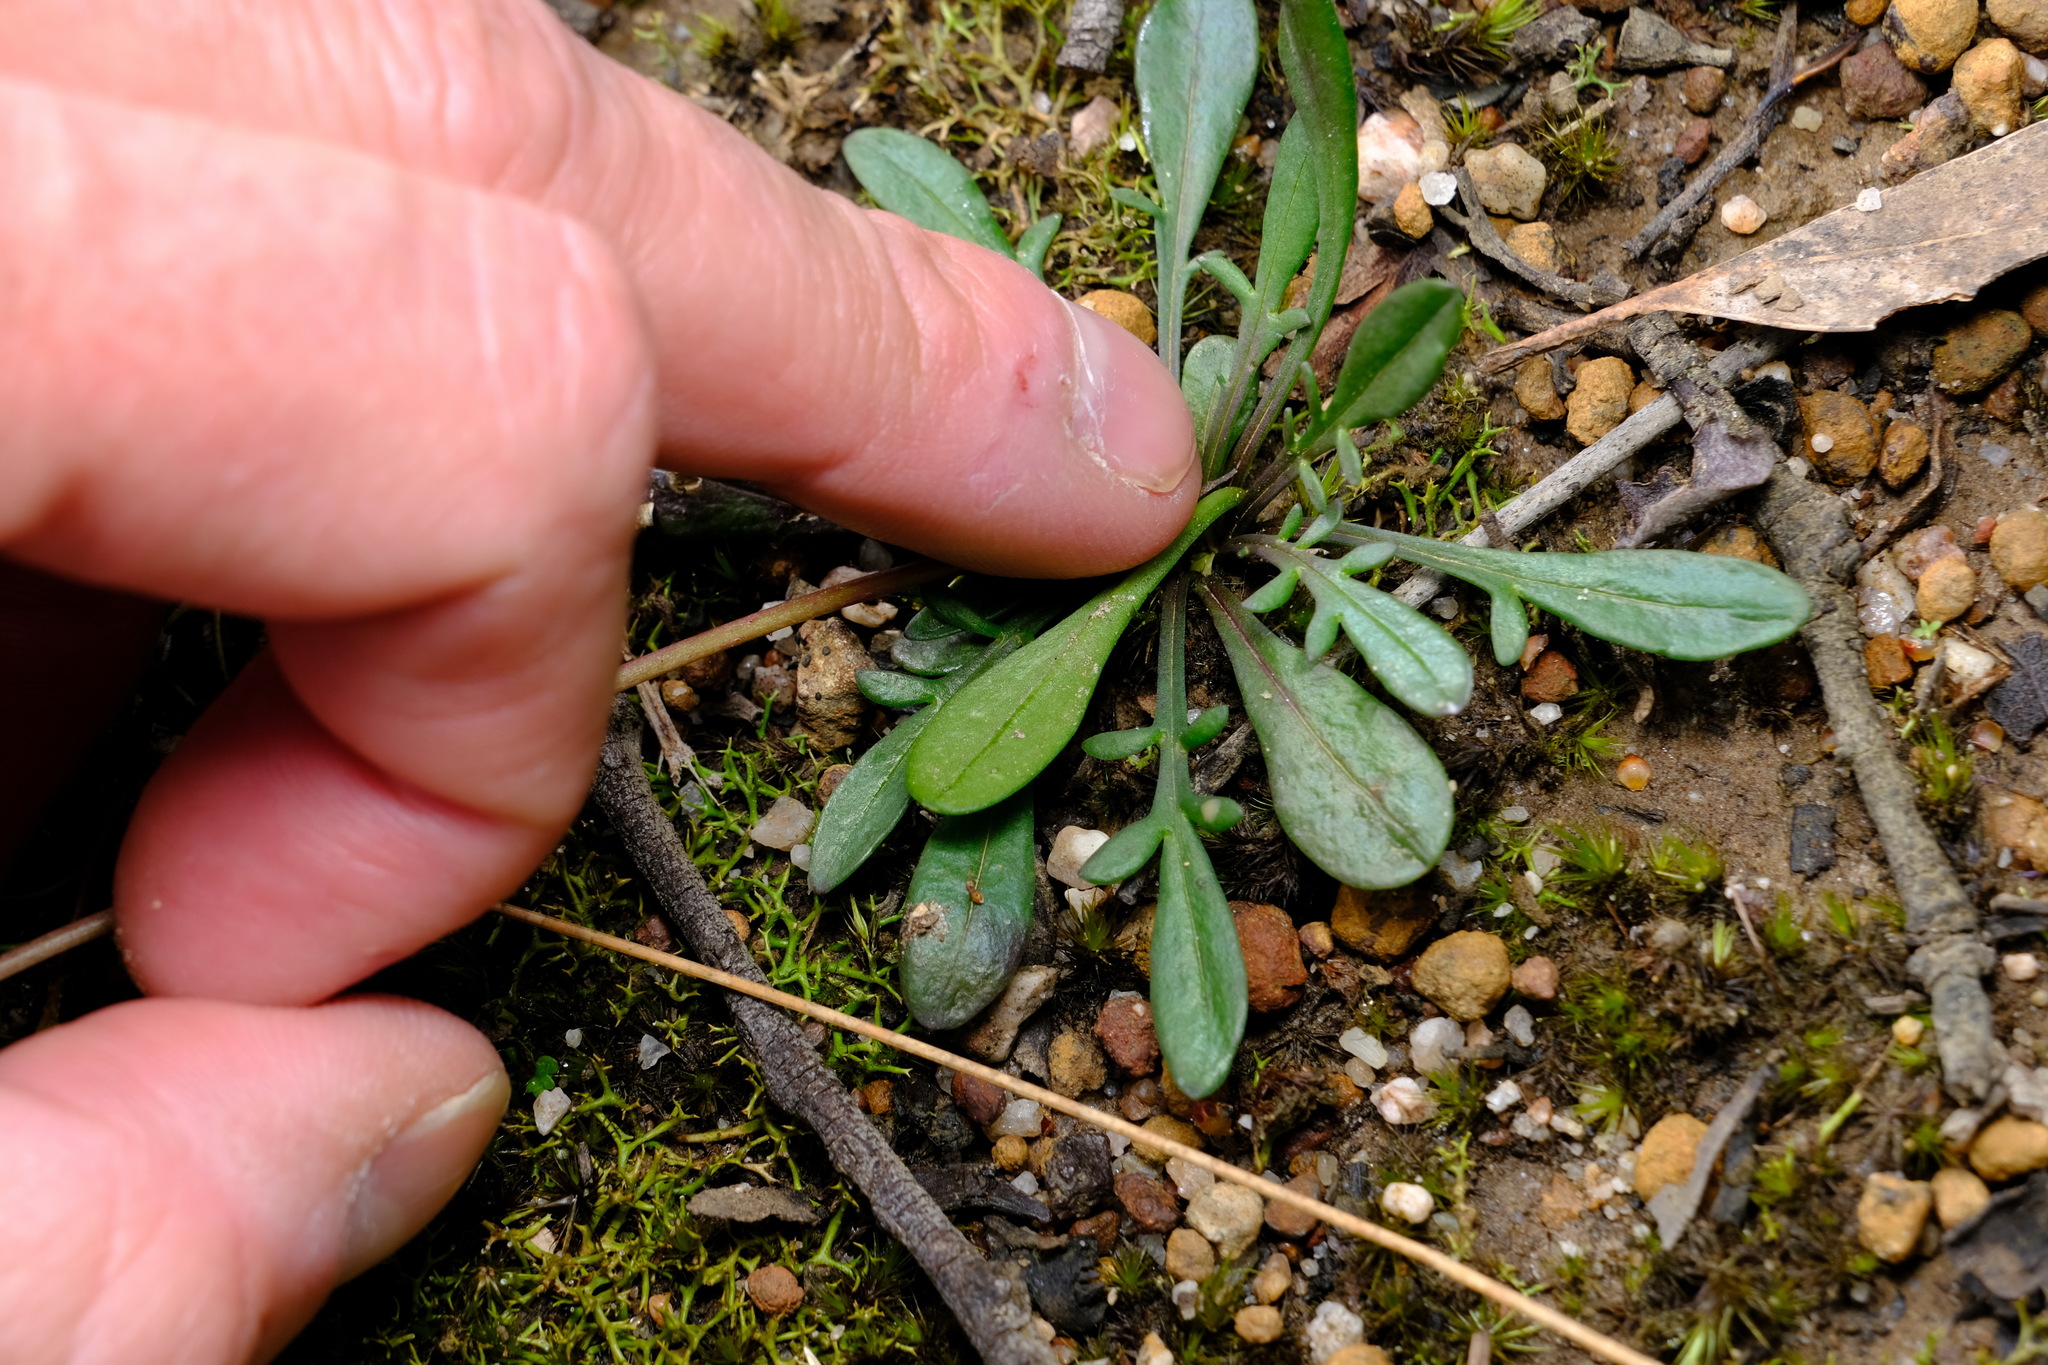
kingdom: Plantae
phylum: Tracheophyta
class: Magnoliopsida
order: Asterales
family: Asteraceae
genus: Allittia
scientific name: Allittia uliginosa
